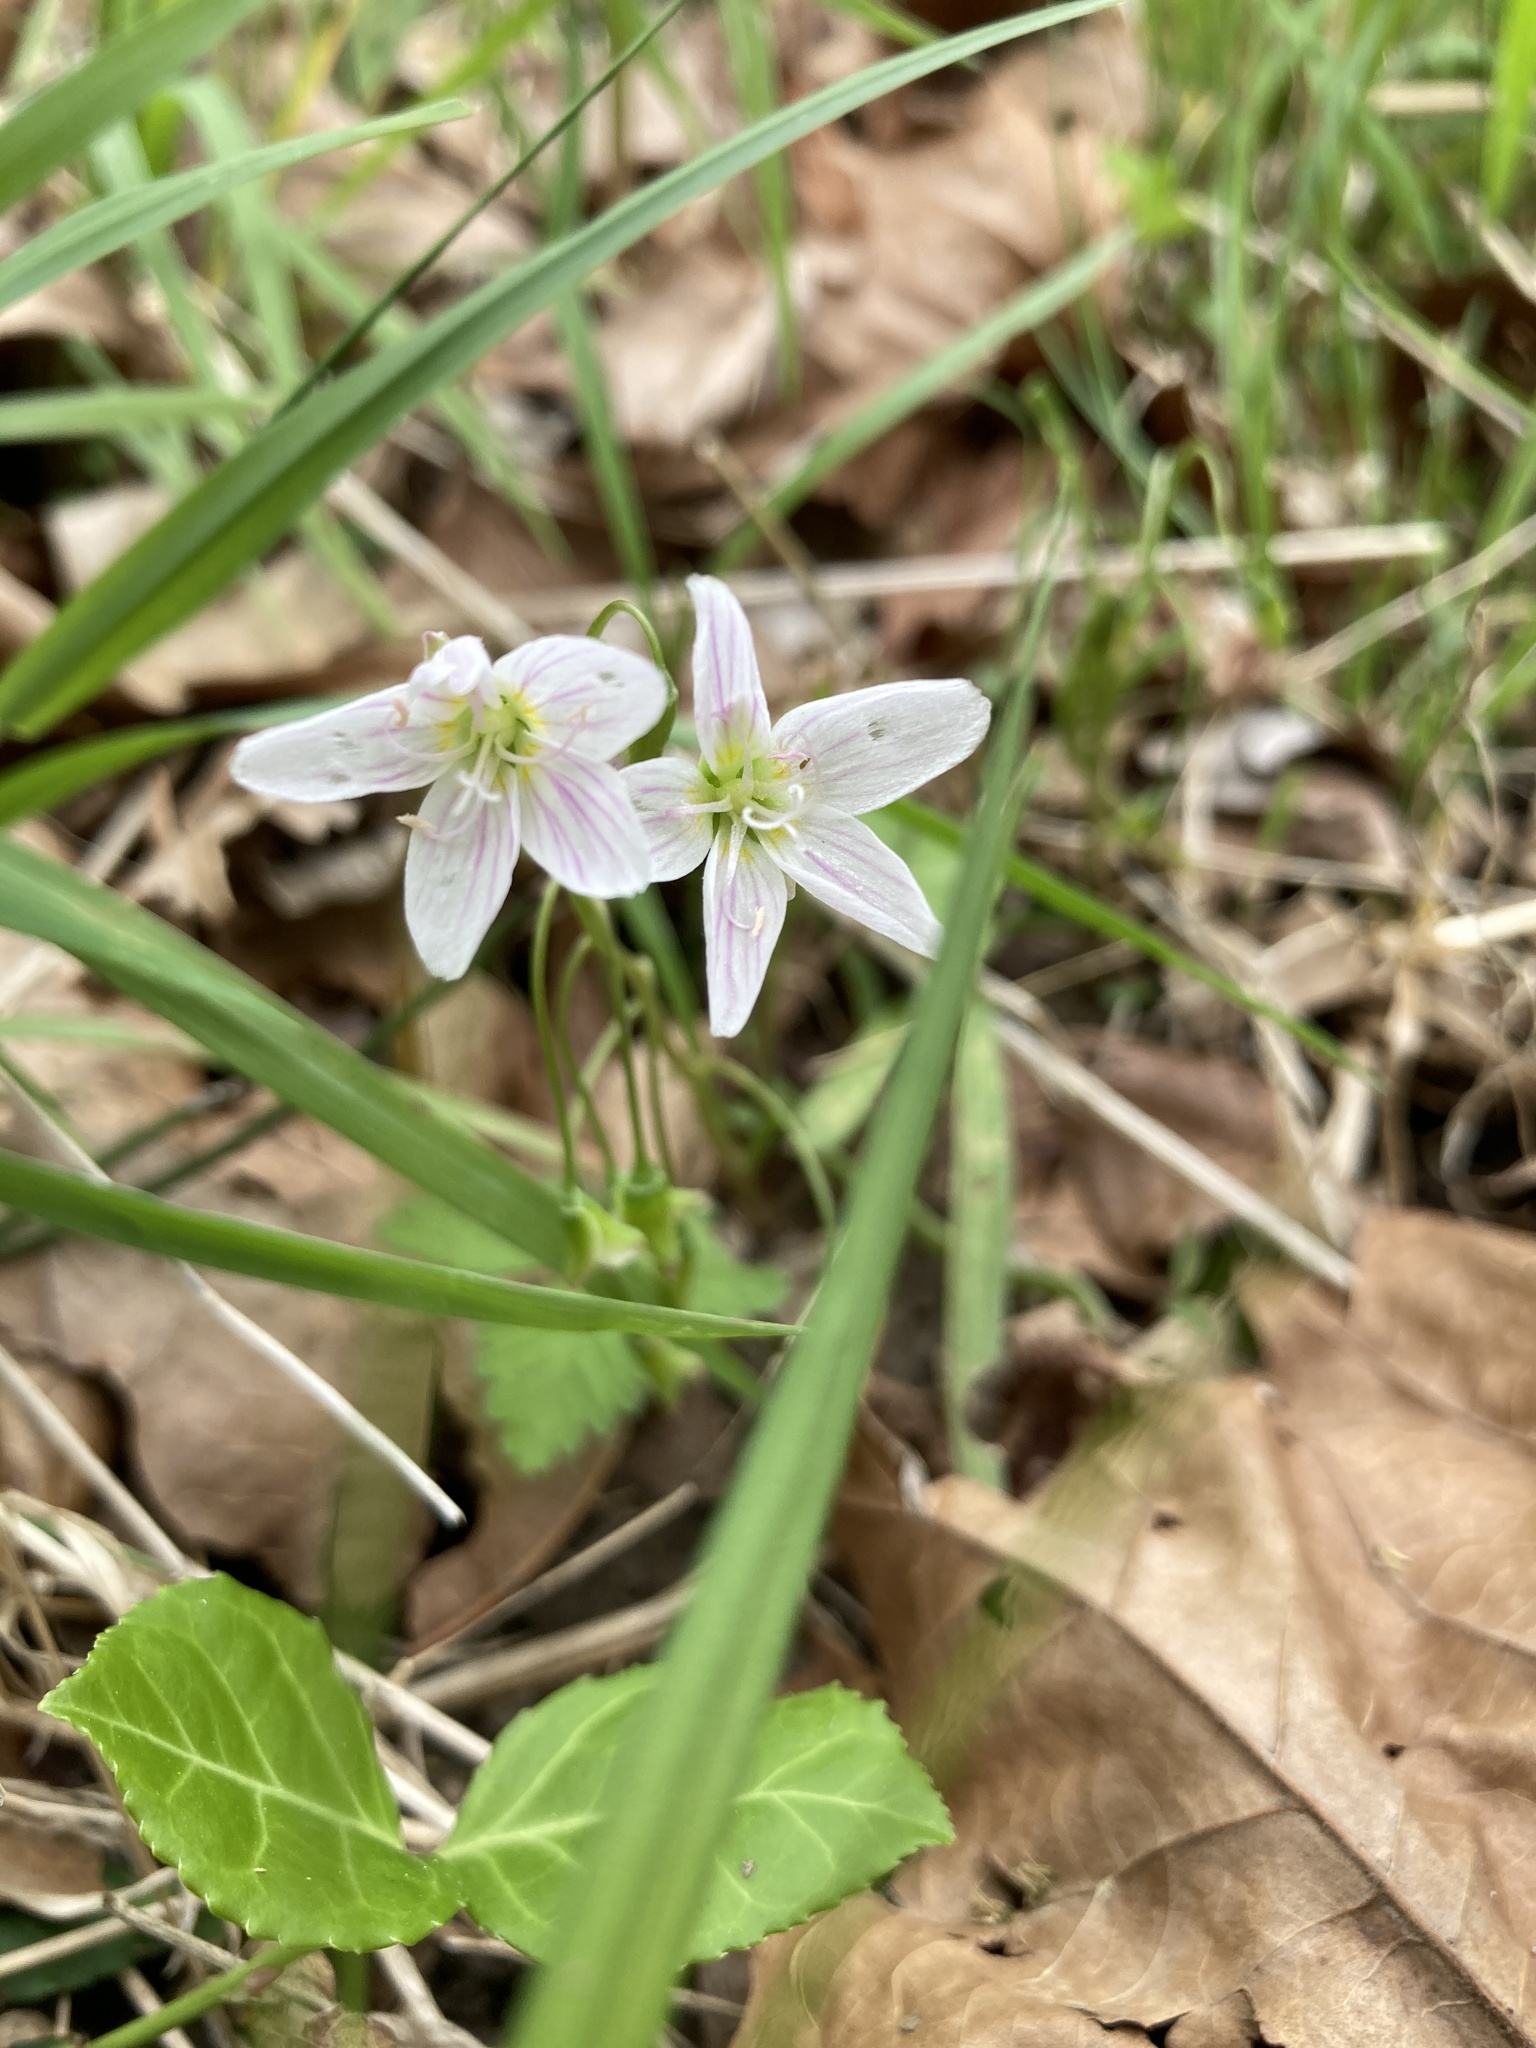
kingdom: Plantae
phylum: Tracheophyta
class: Magnoliopsida
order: Caryophyllales
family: Montiaceae
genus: Claytonia
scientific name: Claytonia virginica
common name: Virginia springbeauty
